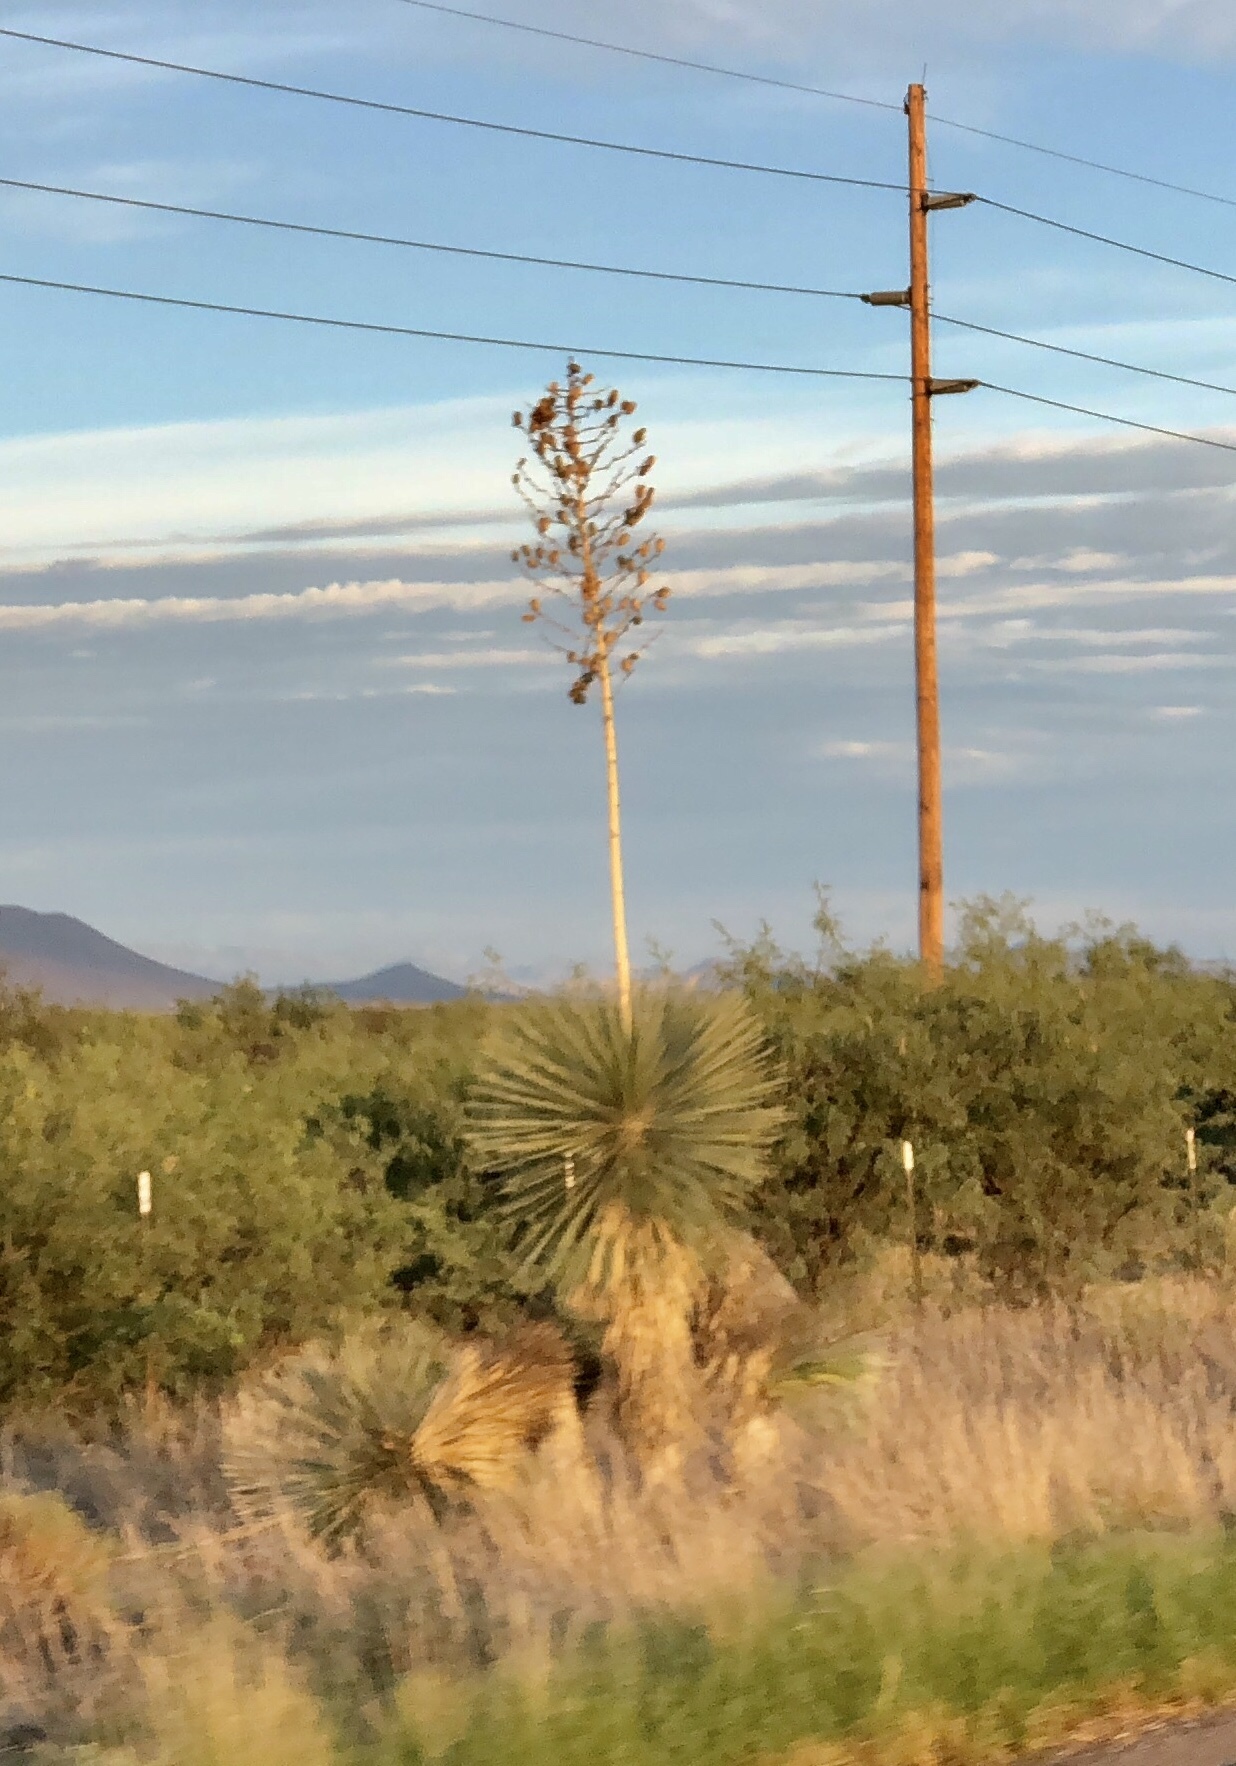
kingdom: Plantae
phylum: Tracheophyta
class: Liliopsida
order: Asparagales
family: Asparagaceae
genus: Yucca
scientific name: Yucca elata
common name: Palmella
